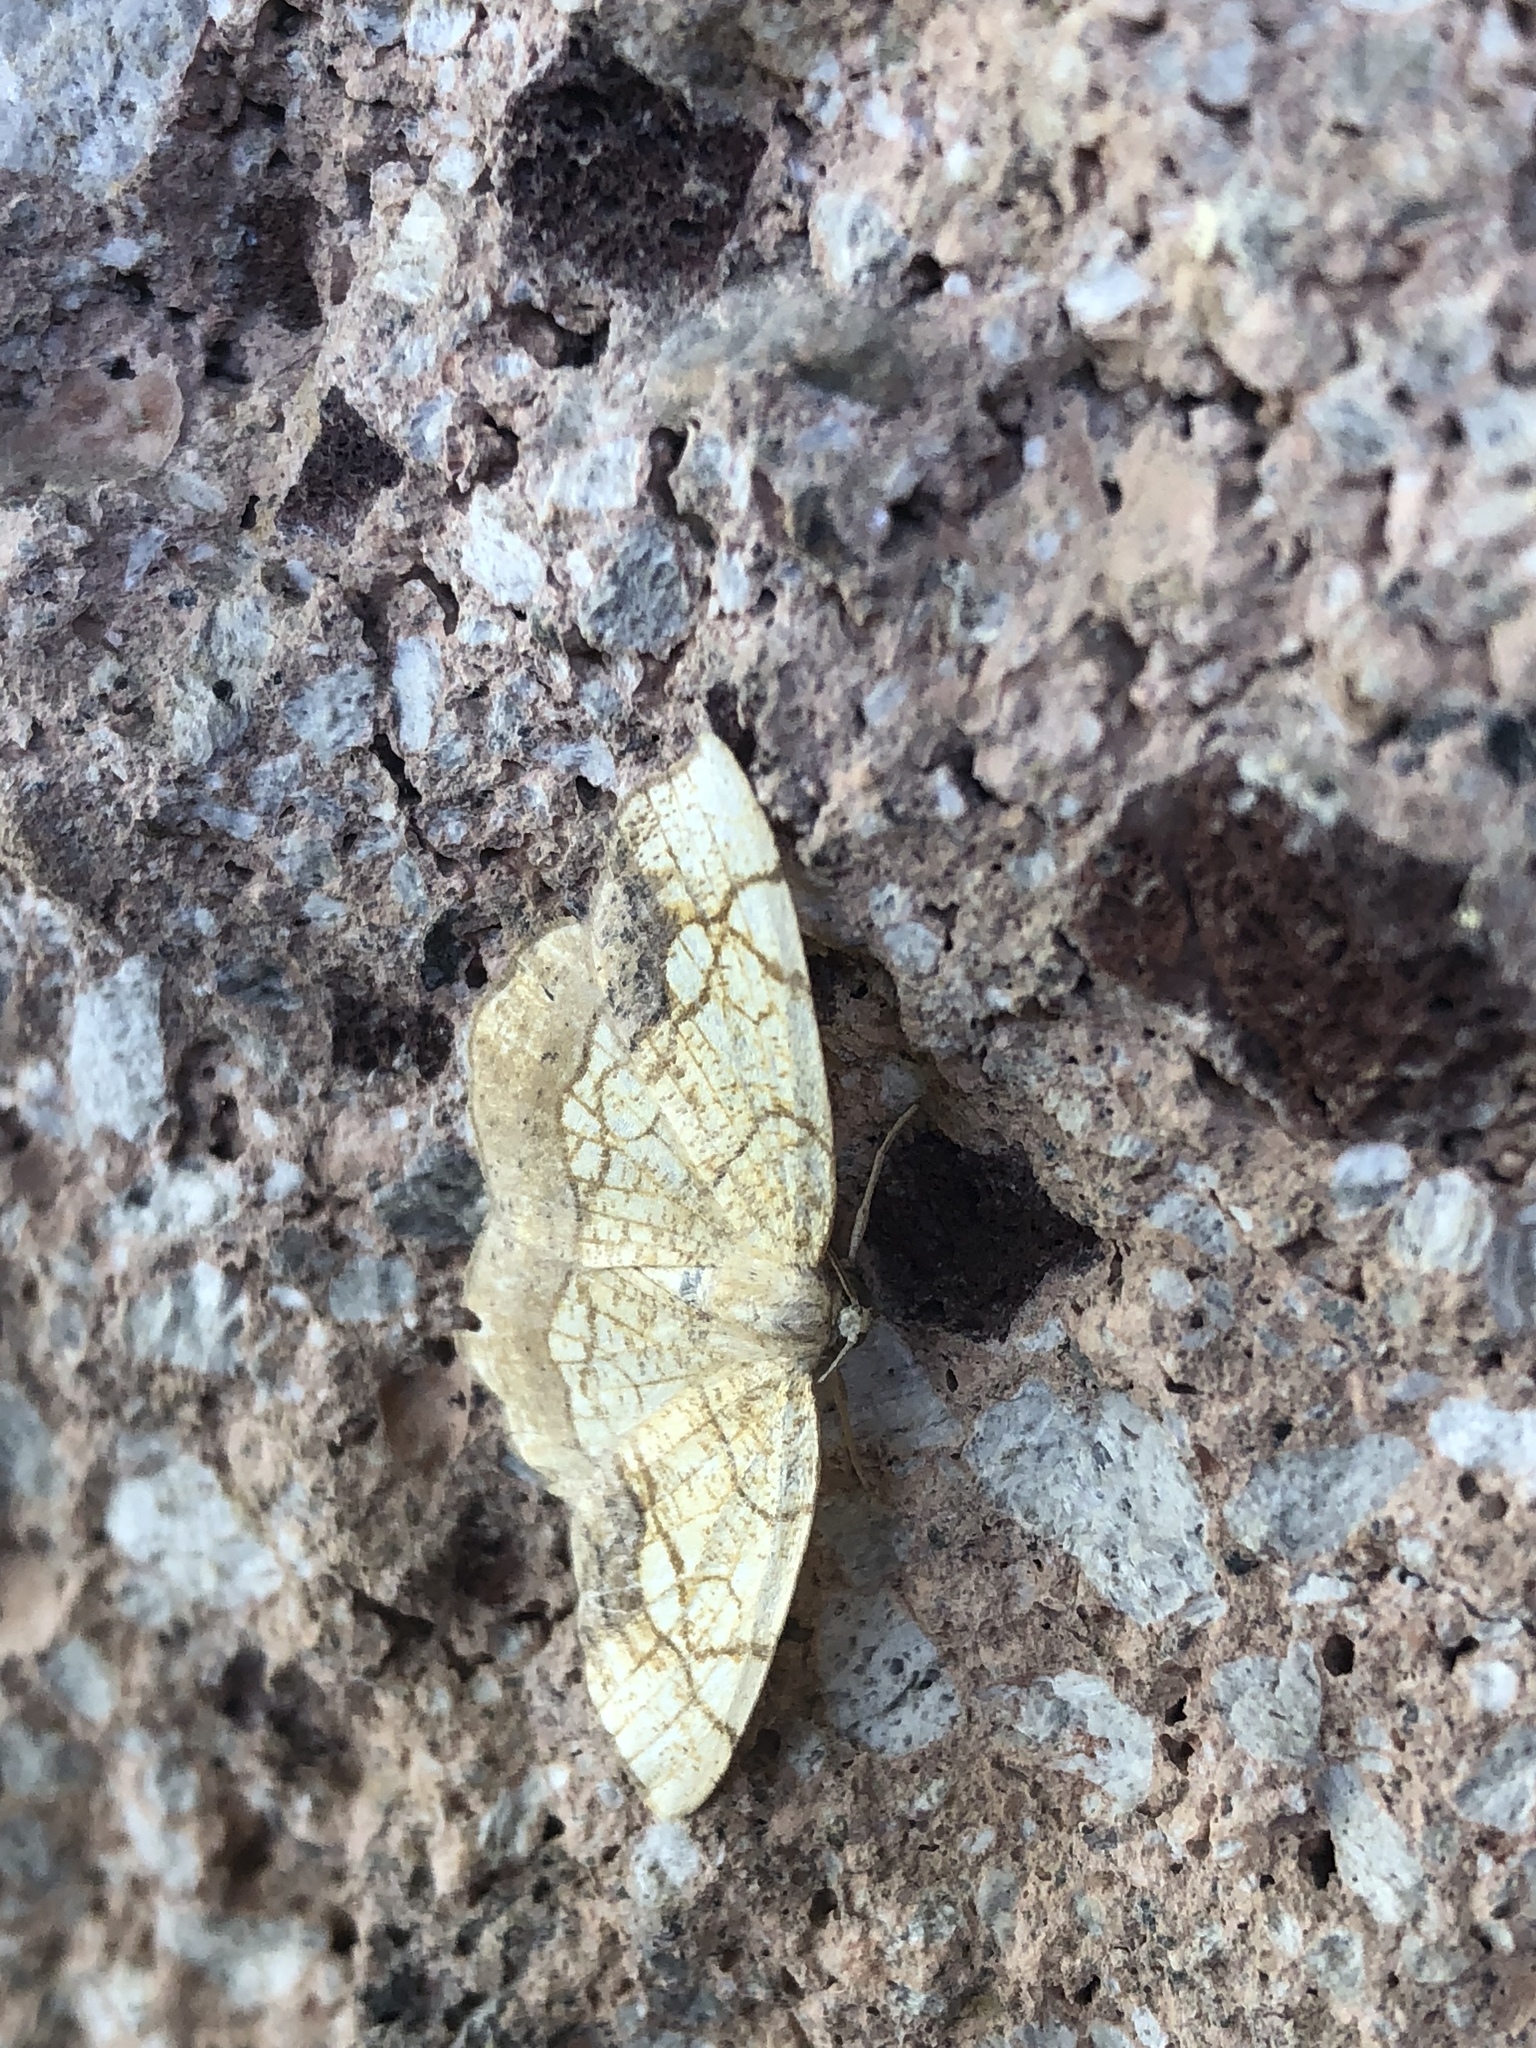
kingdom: Animalia
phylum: Arthropoda
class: Insecta
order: Lepidoptera
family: Geometridae
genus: Nematocampa
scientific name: Nematocampa resistaria
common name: Horned spanworm moth
